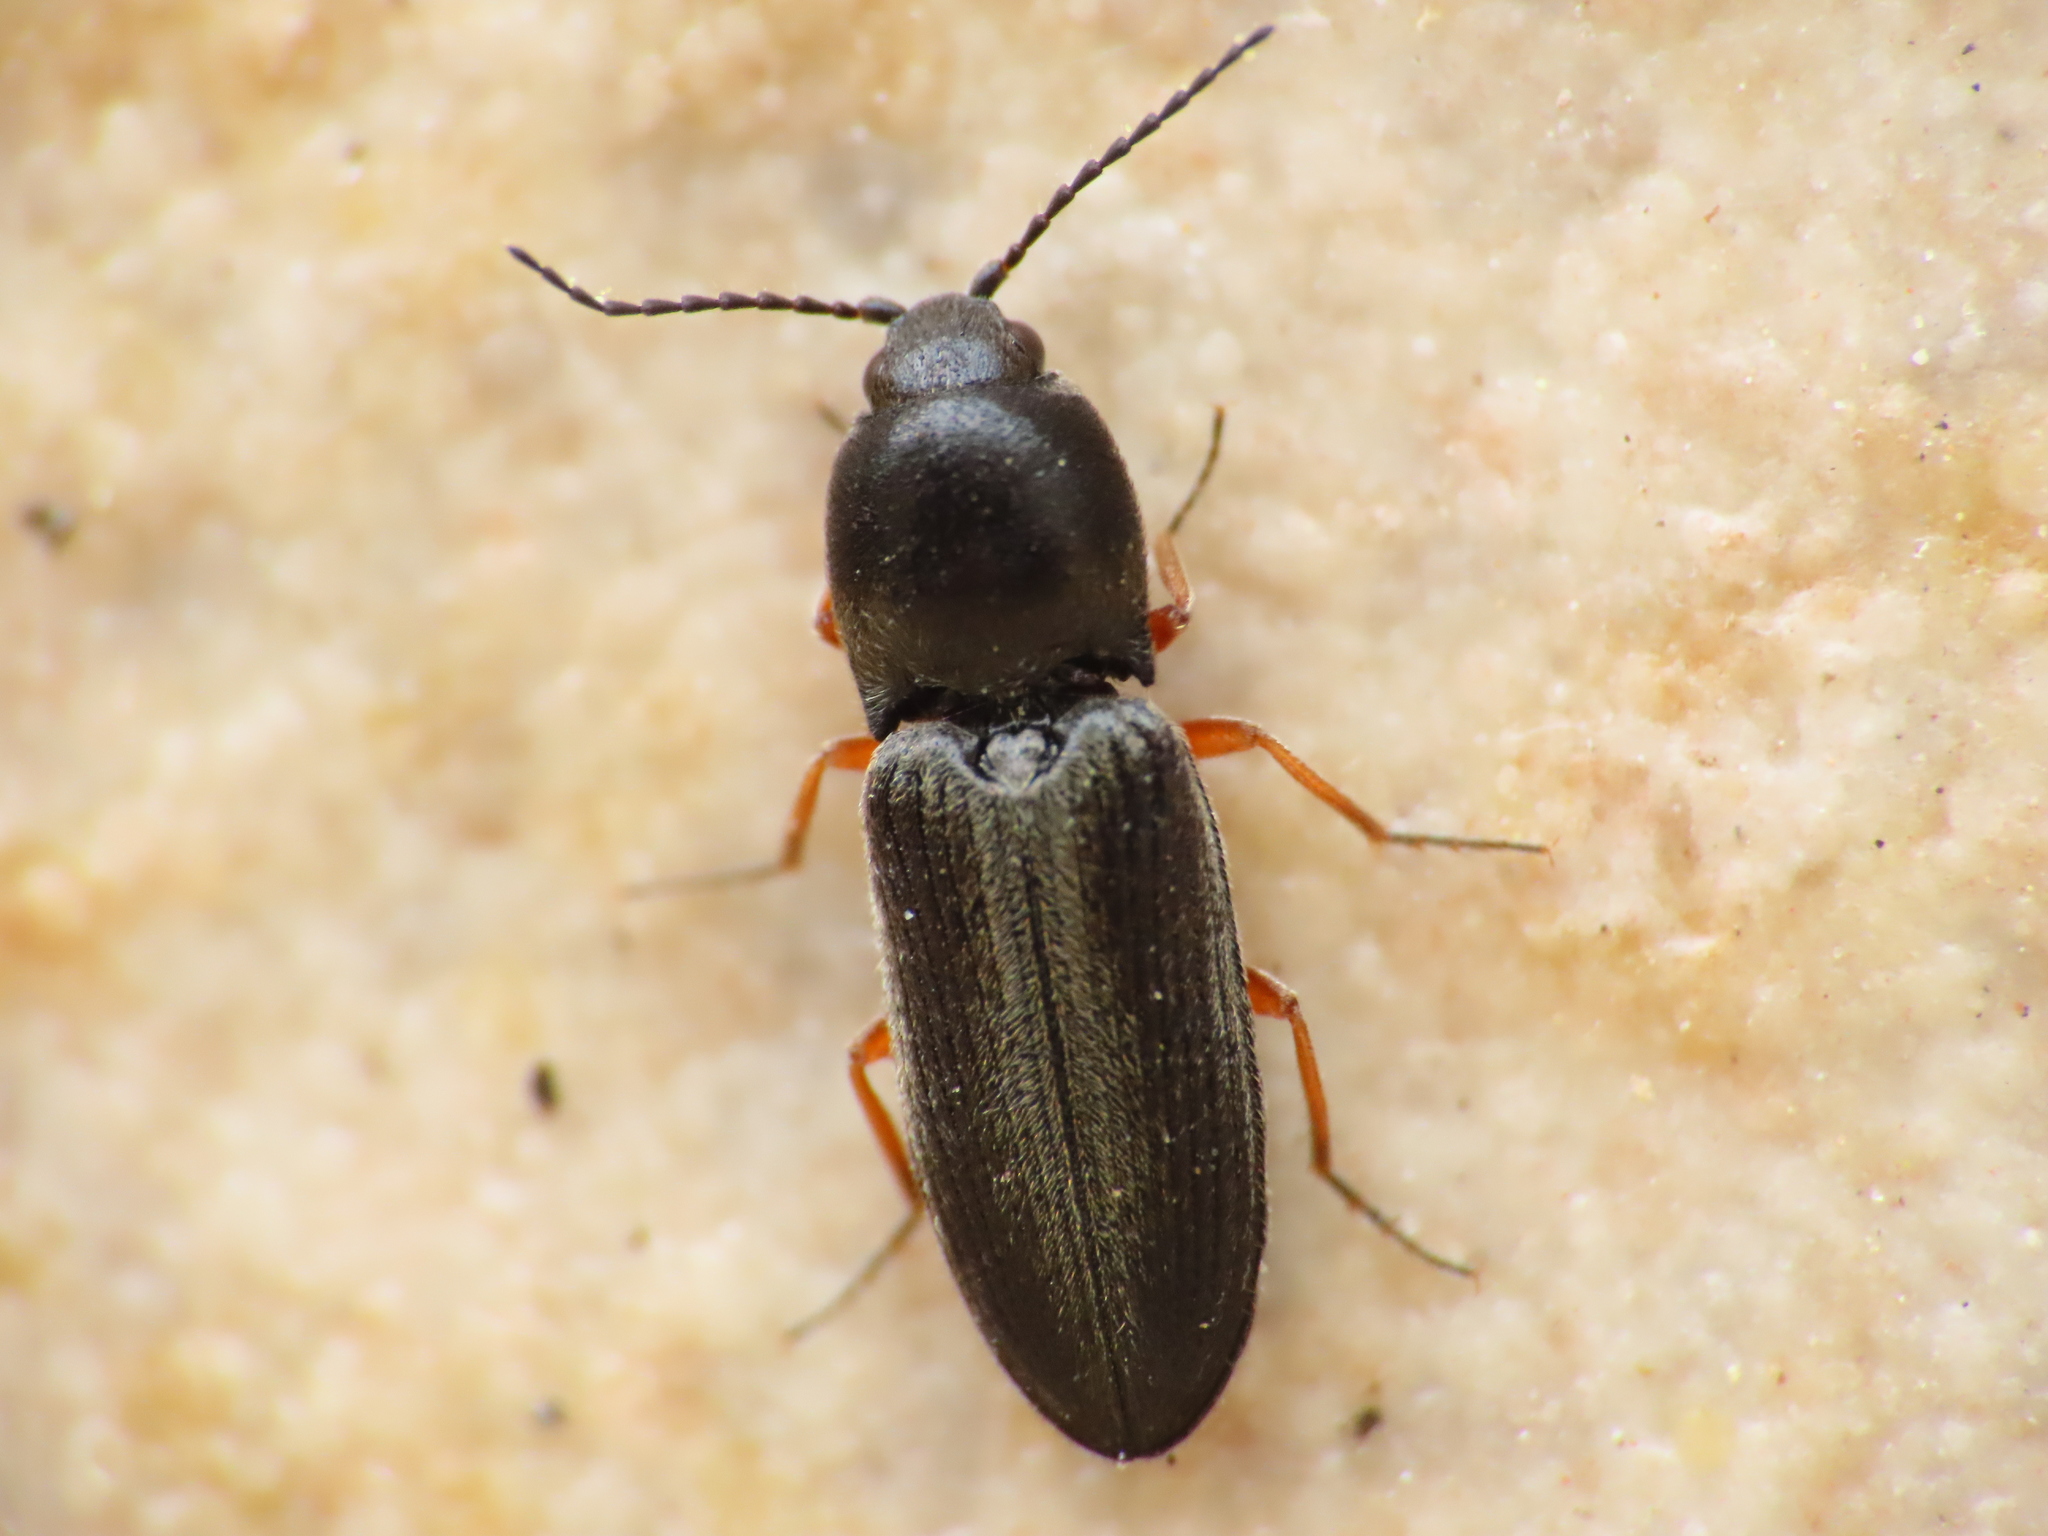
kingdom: Animalia
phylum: Arthropoda
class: Insecta
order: Coleoptera
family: Elateridae
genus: Cardiophorus
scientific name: Cardiophorus rufipes
